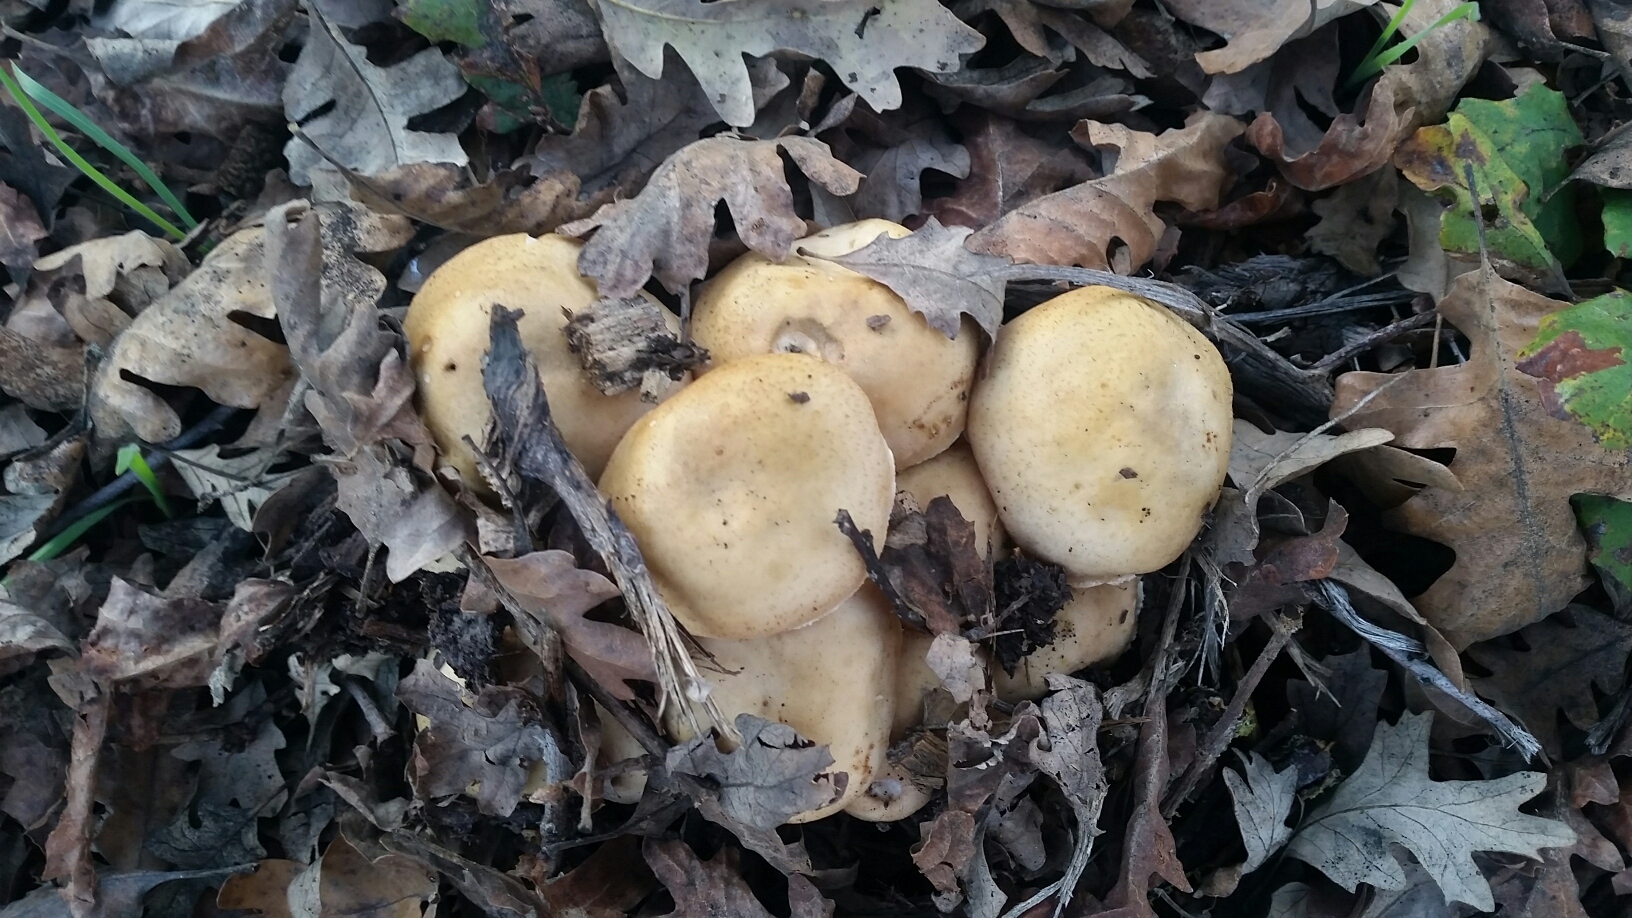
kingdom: Fungi
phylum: Basidiomycota
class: Agaricomycetes
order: Agaricales
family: Physalacriaceae
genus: Armillaria
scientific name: Armillaria mellea
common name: Honey fungus
